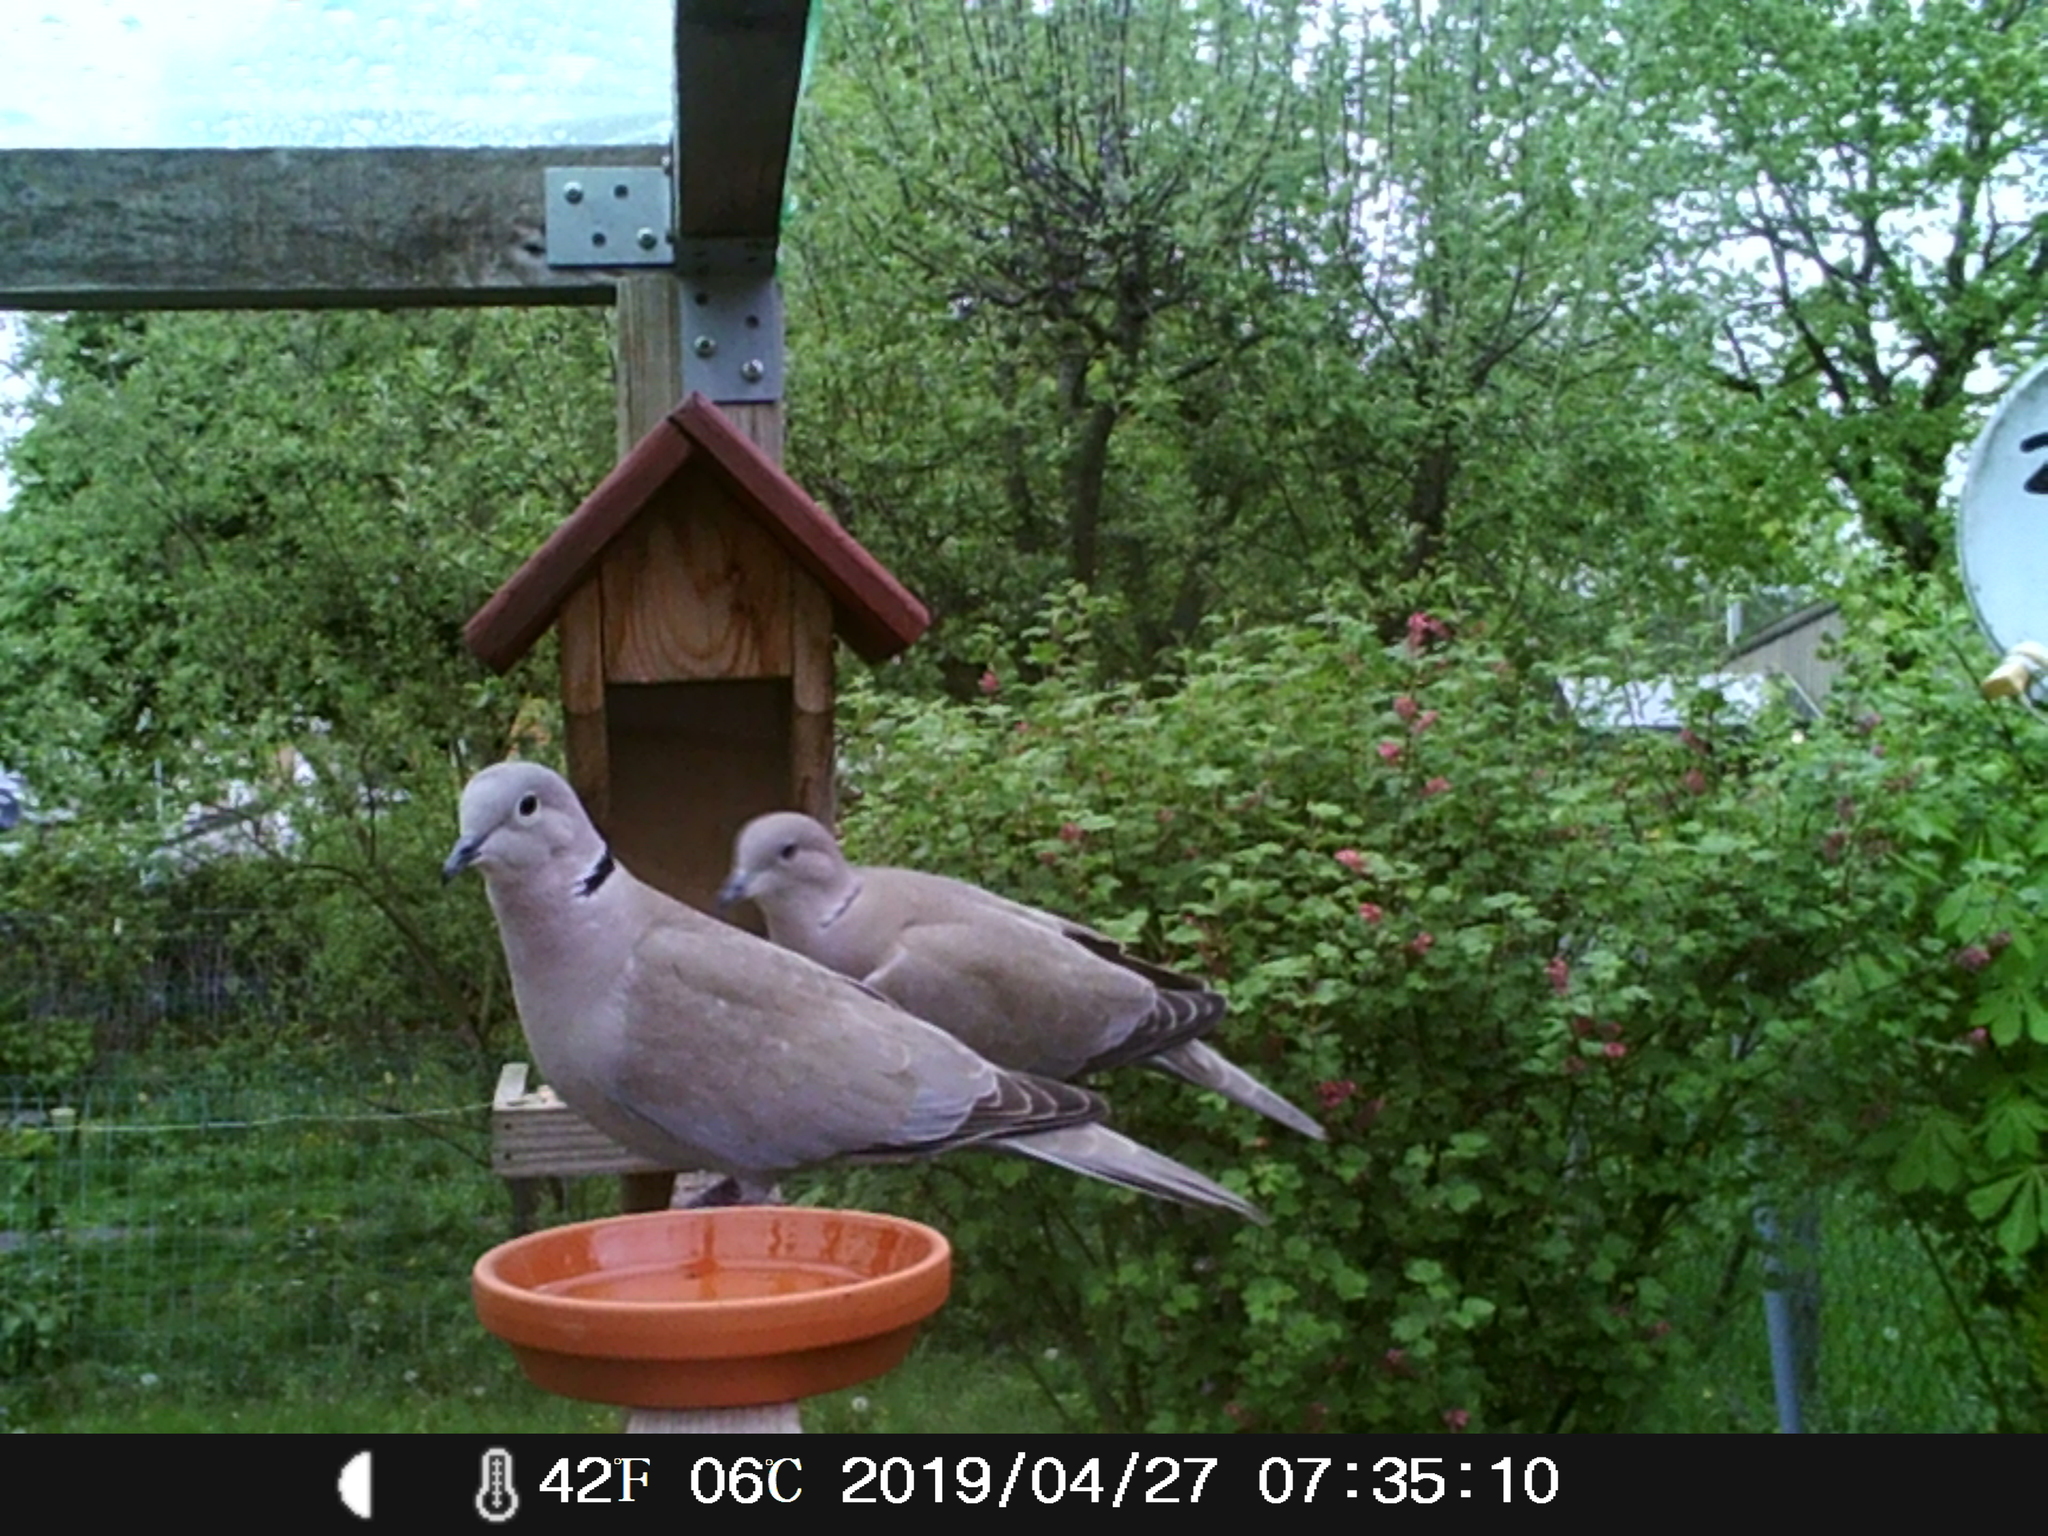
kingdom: Animalia
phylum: Chordata
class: Aves
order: Columbiformes
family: Columbidae
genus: Streptopelia
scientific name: Streptopelia decaocto
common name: Eurasian collared dove
